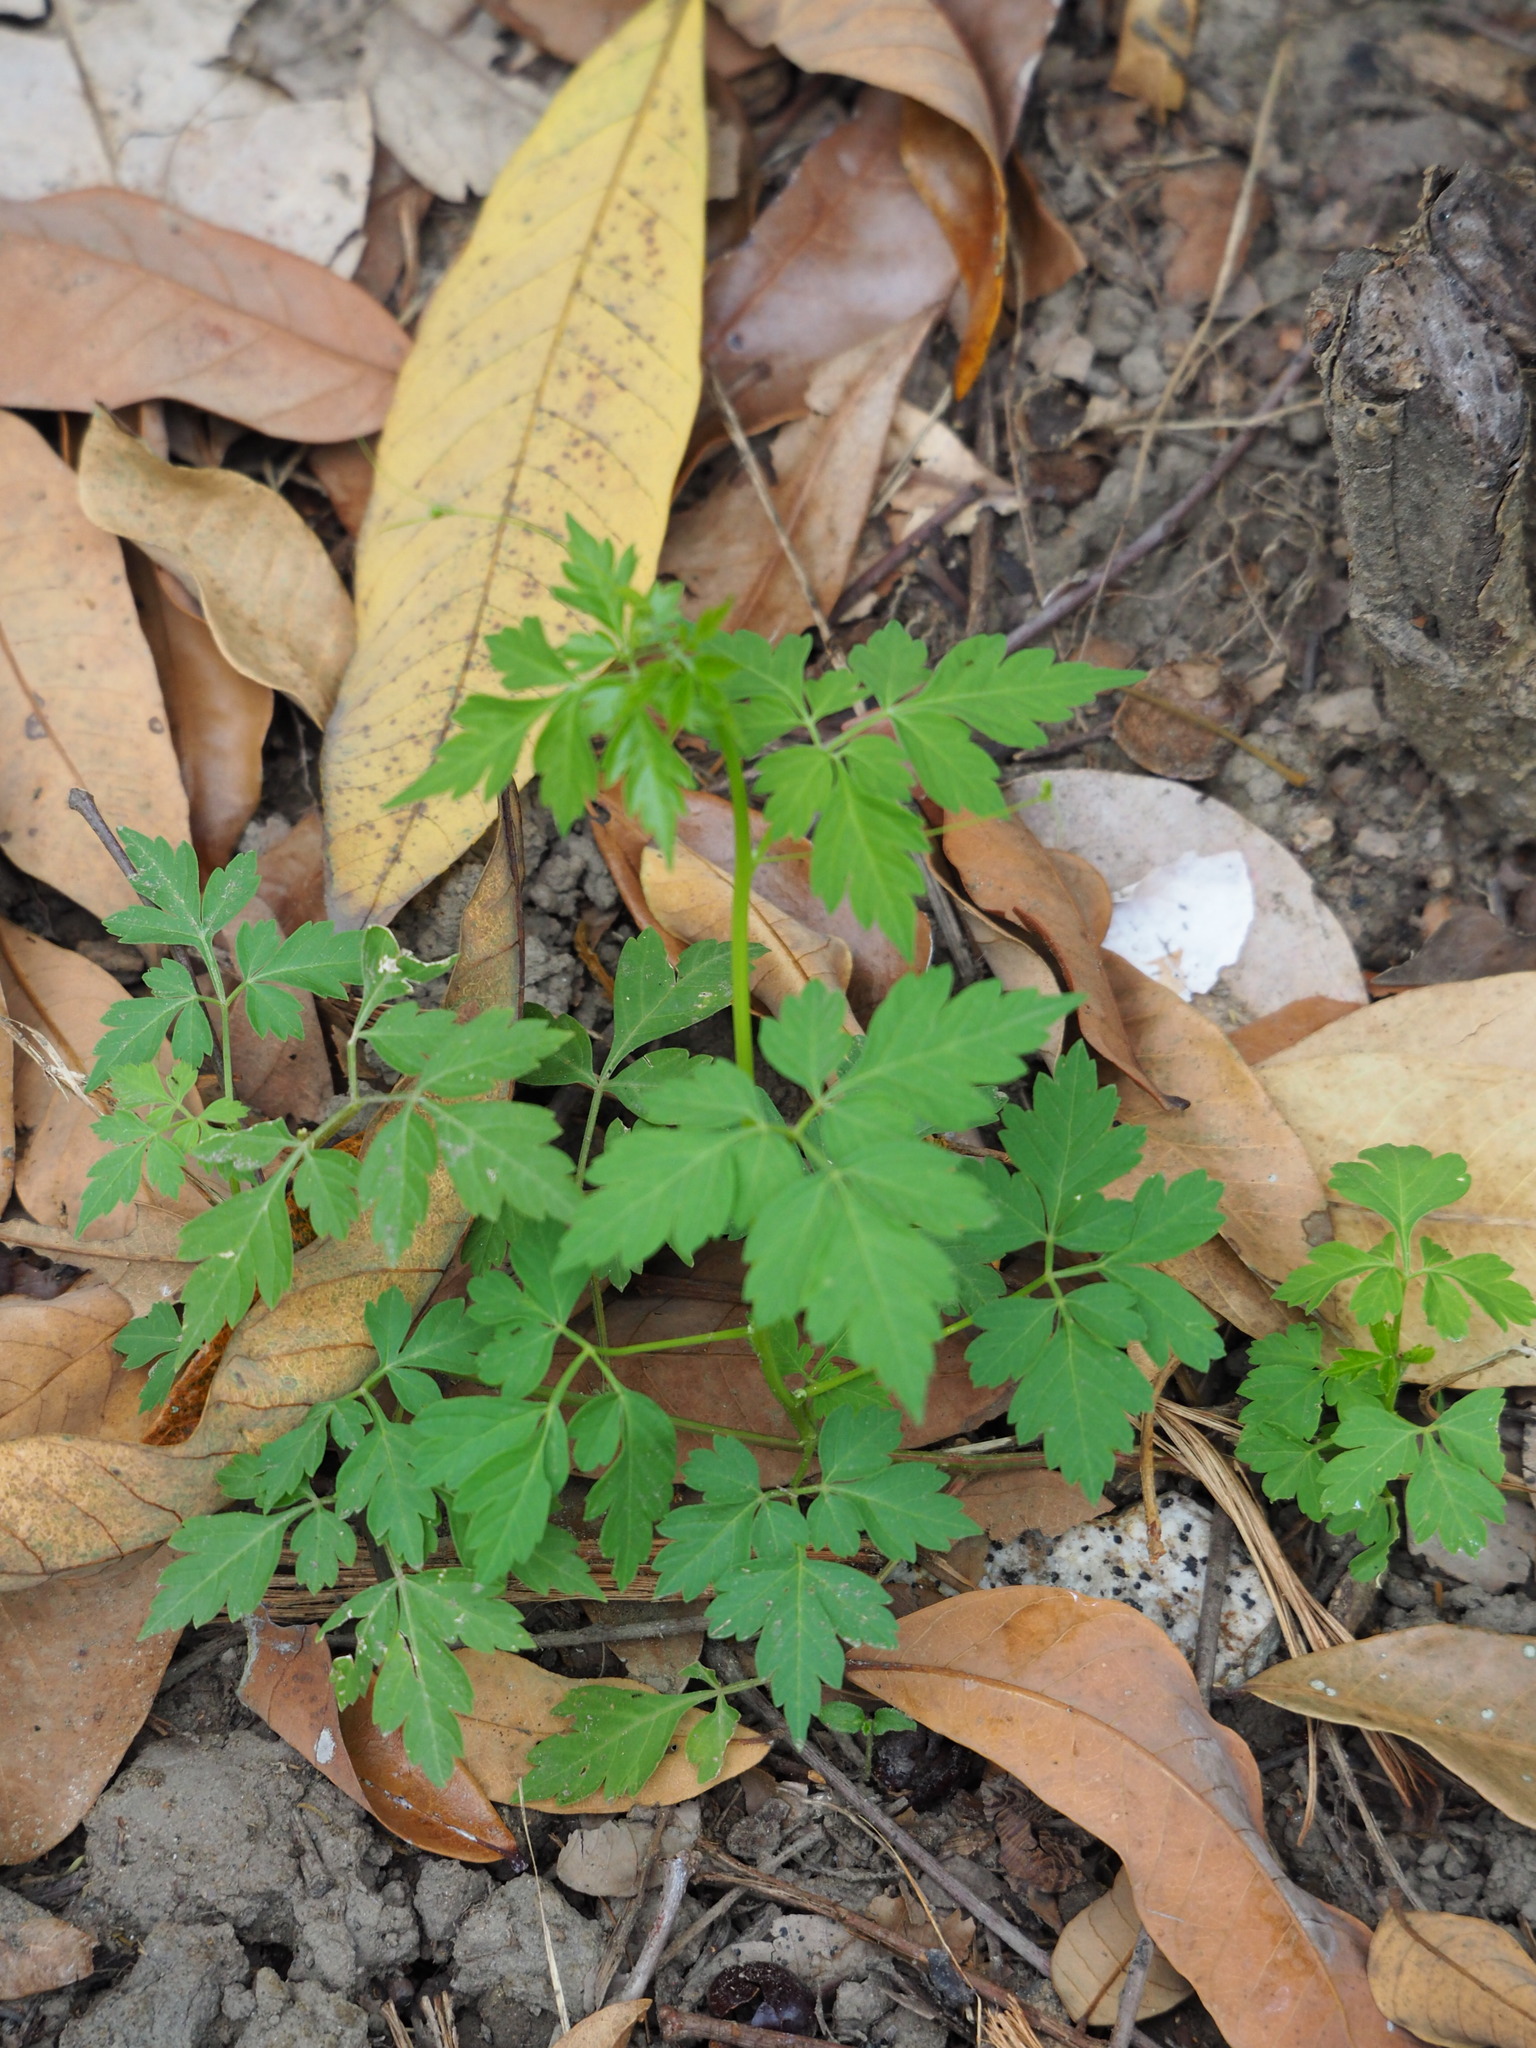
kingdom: Plantae
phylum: Tracheophyta
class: Magnoliopsida
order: Sapindales
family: Sapindaceae
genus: Cardiospermum
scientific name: Cardiospermum halicacabum
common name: Balloon vine
